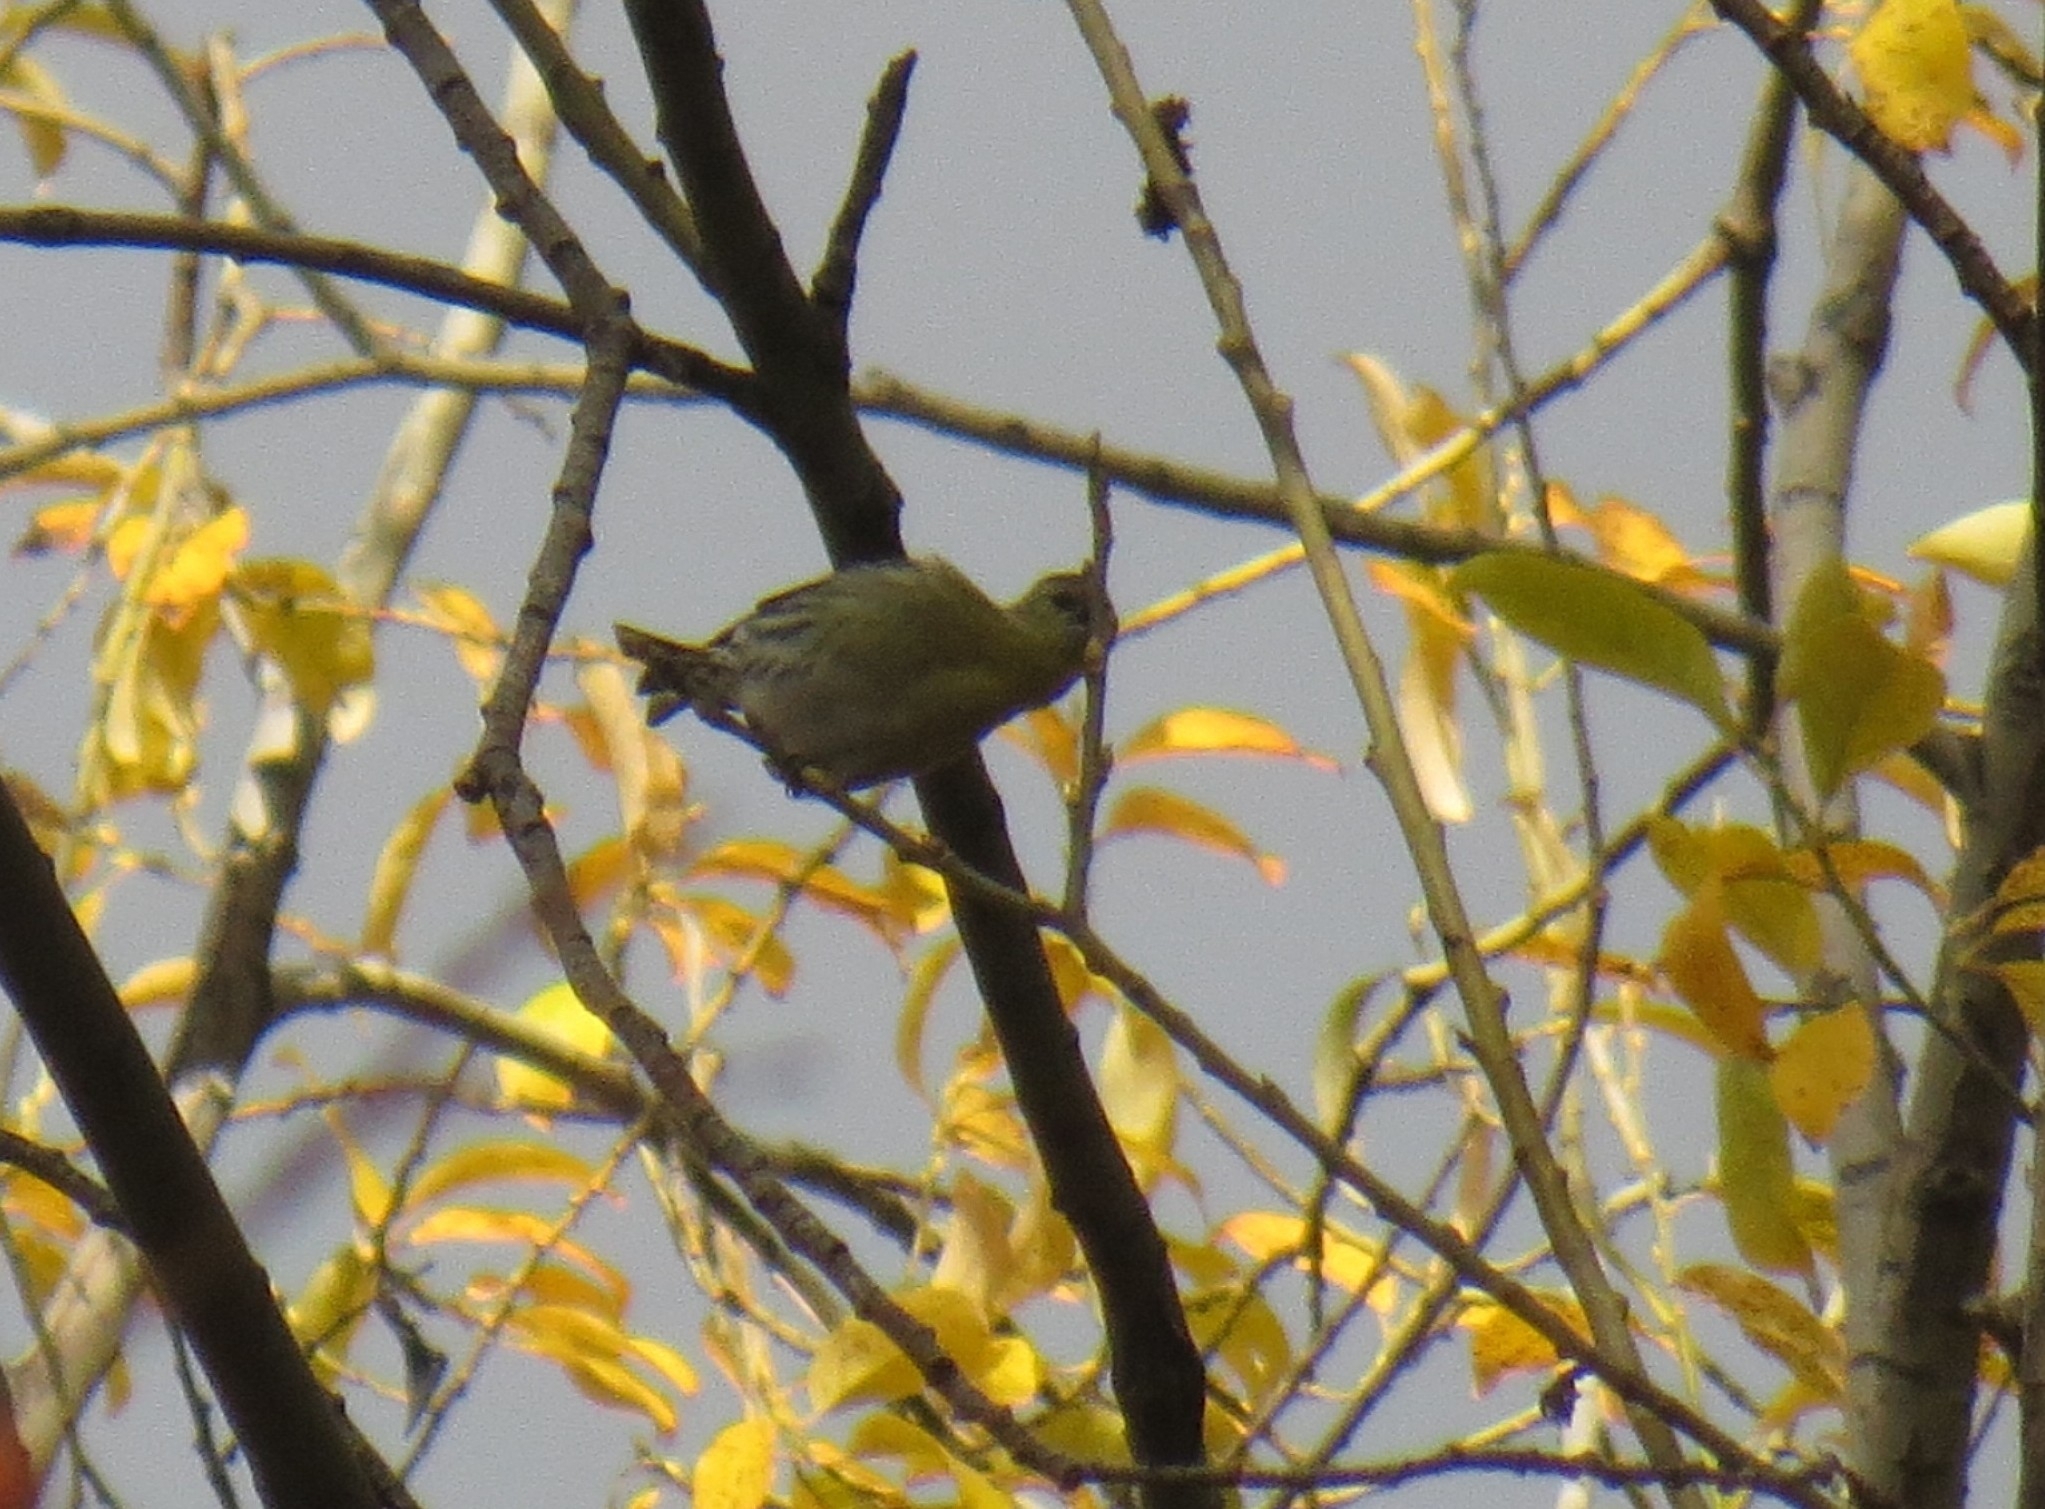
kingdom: Animalia
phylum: Chordata
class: Aves
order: Passeriformes
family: Fringillidae
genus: Spinus
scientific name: Spinus spinus
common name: Eurasian siskin
